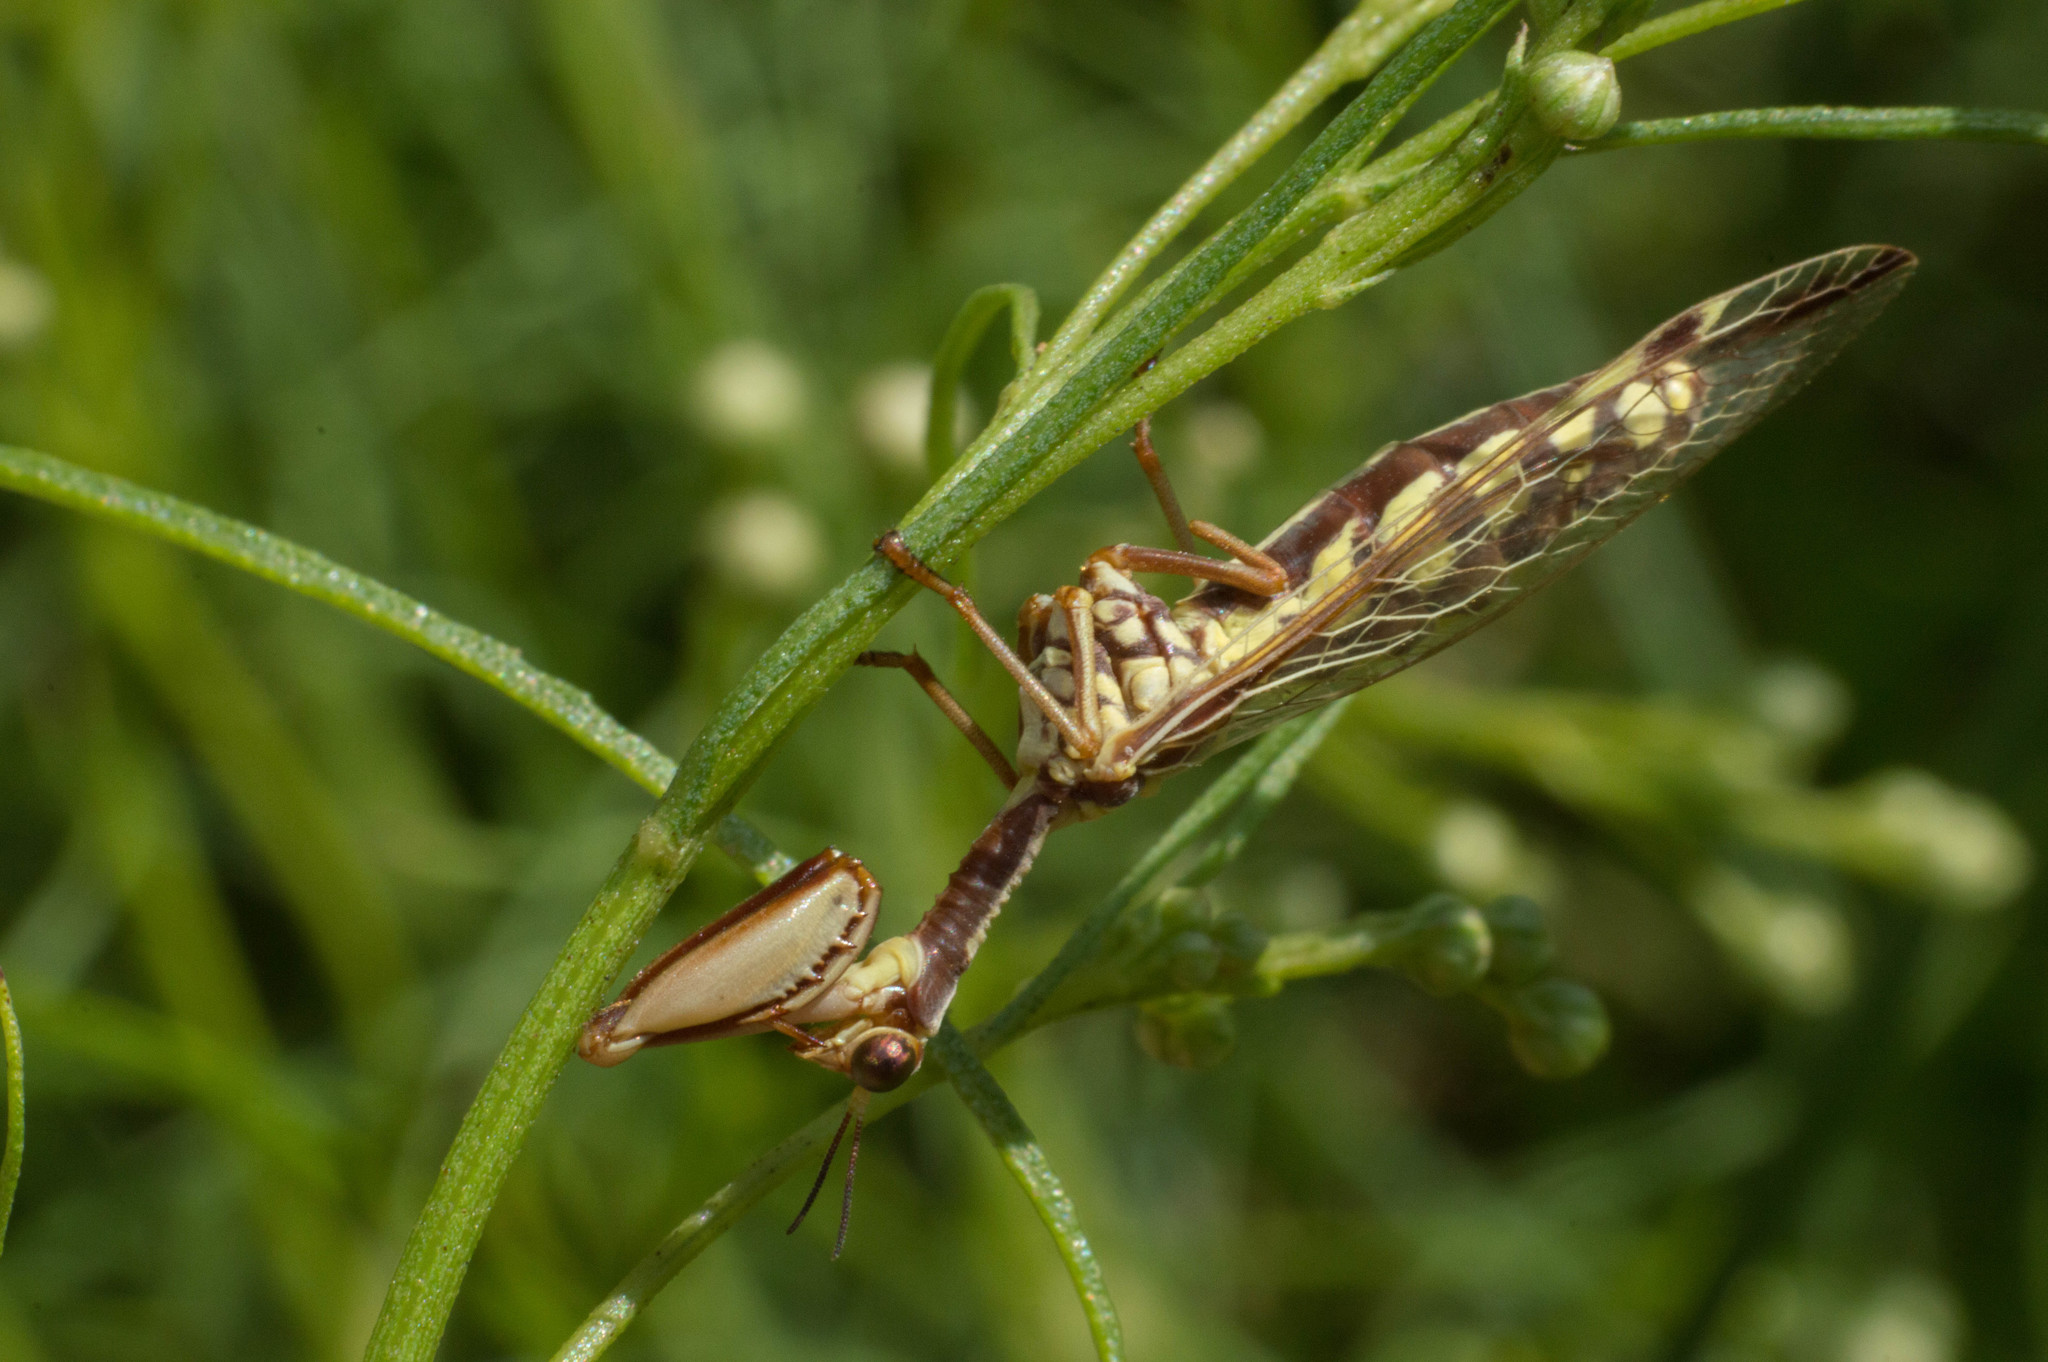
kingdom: Animalia
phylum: Arthropoda
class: Insecta
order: Neuroptera
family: Mantispidae
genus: Paramantispa
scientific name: Paramantispa prolixa
